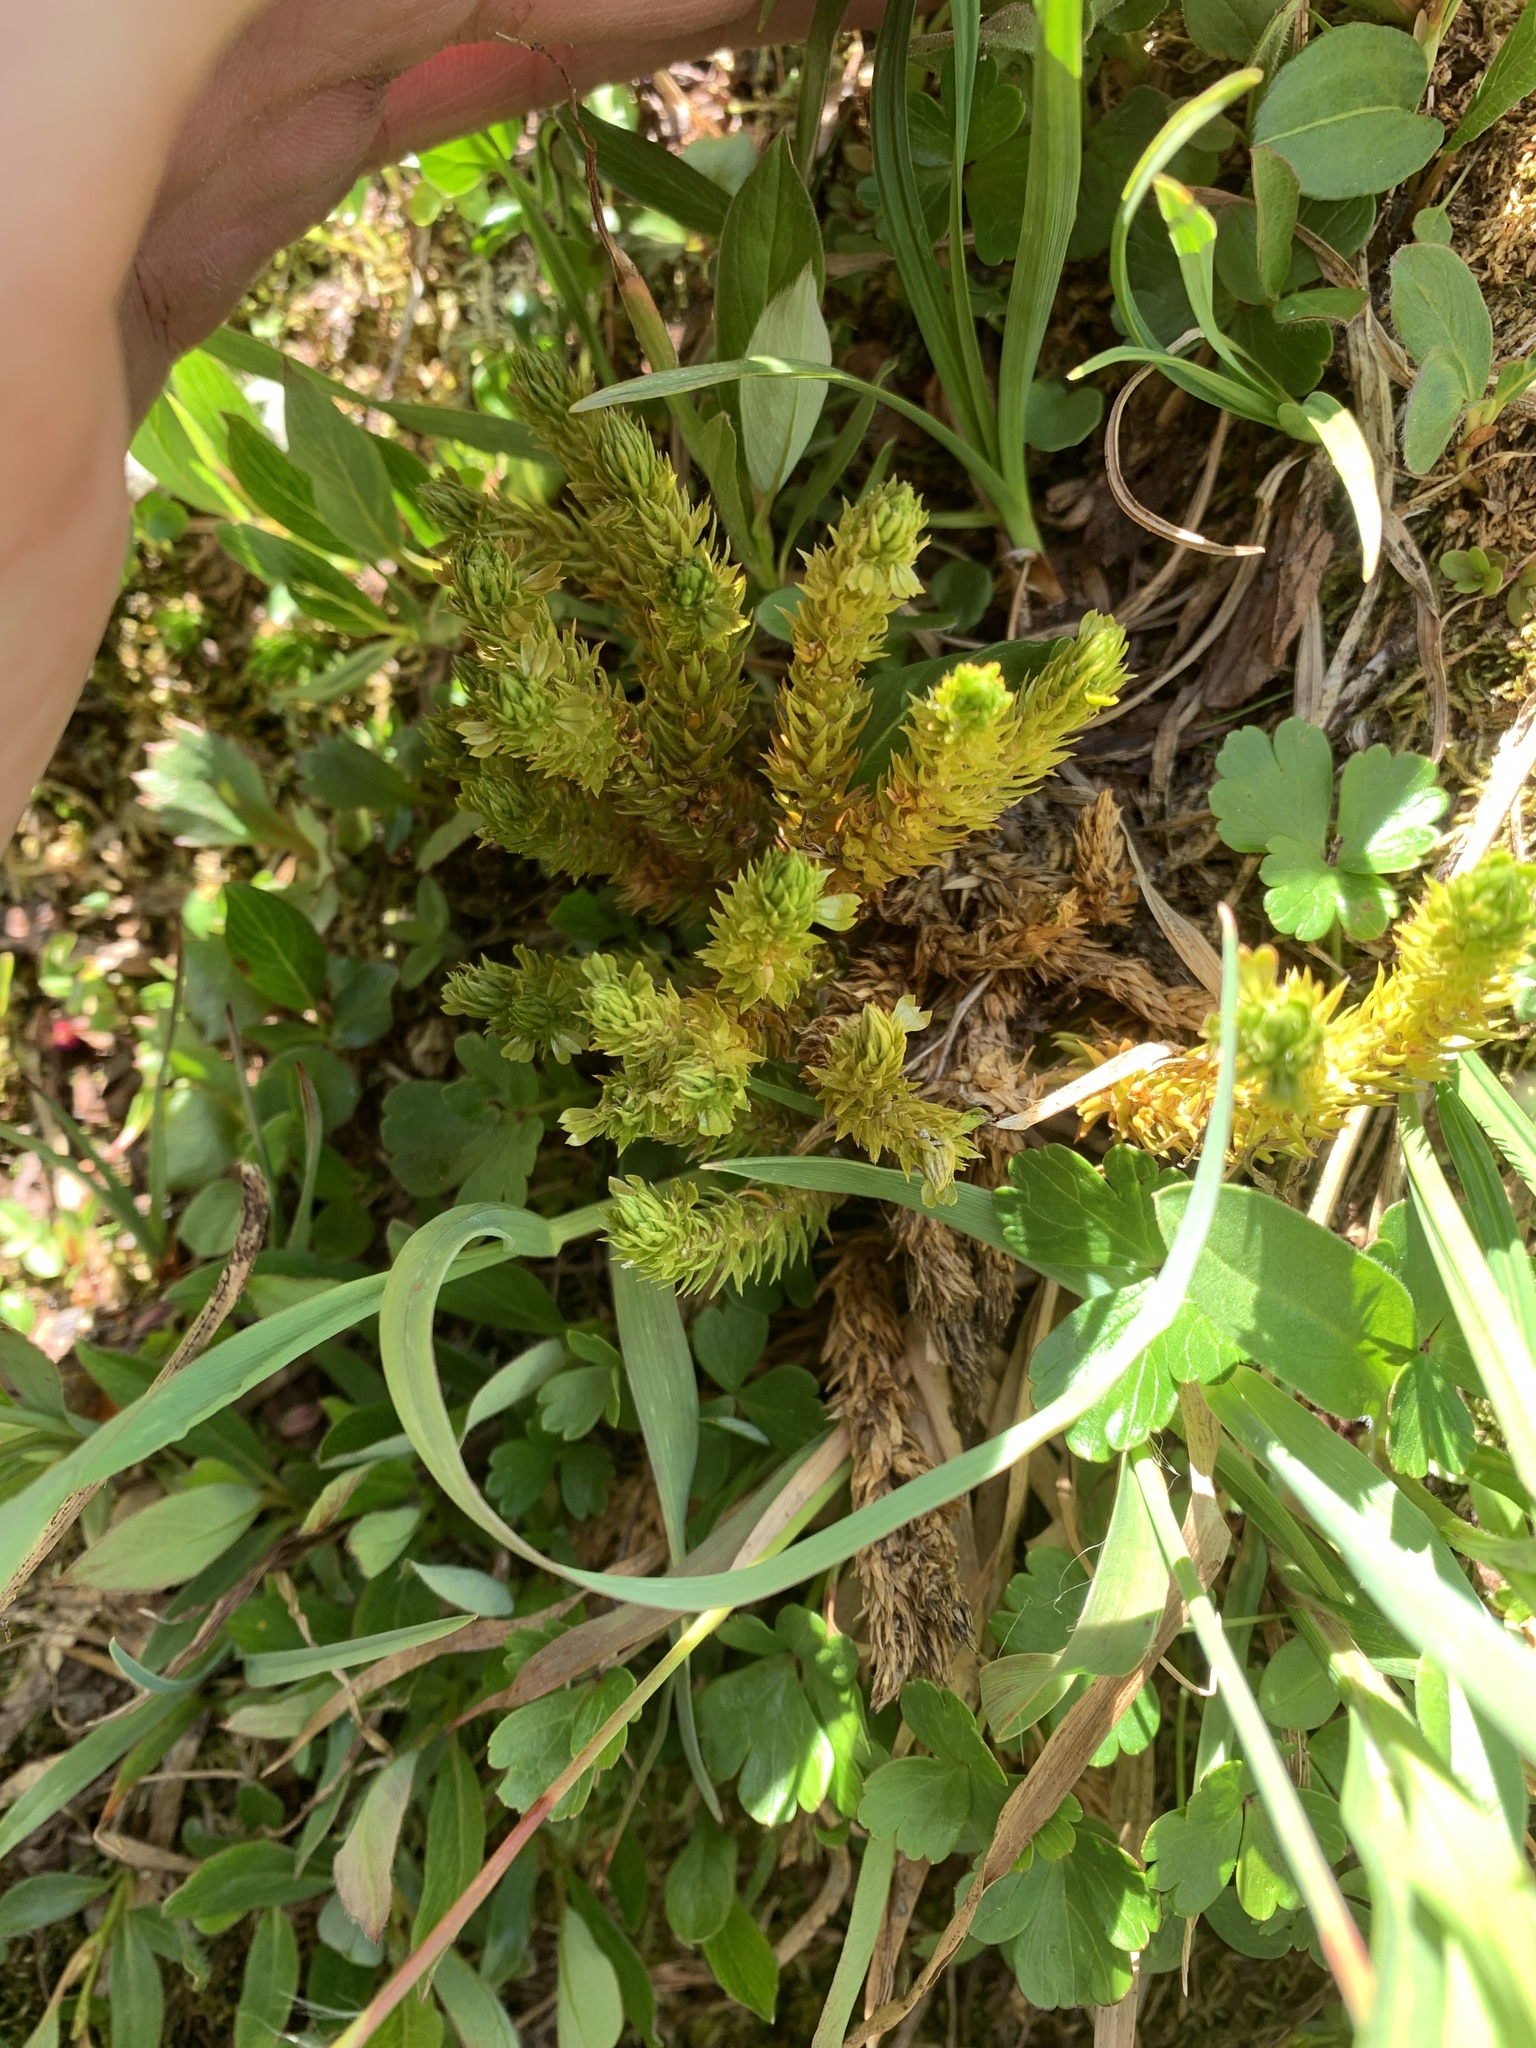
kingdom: Plantae
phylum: Tracheophyta
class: Lycopodiopsida
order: Lycopodiales
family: Lycopodiaceae
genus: Huperzia
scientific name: Huperzia continentalis
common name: Continental firmoss
